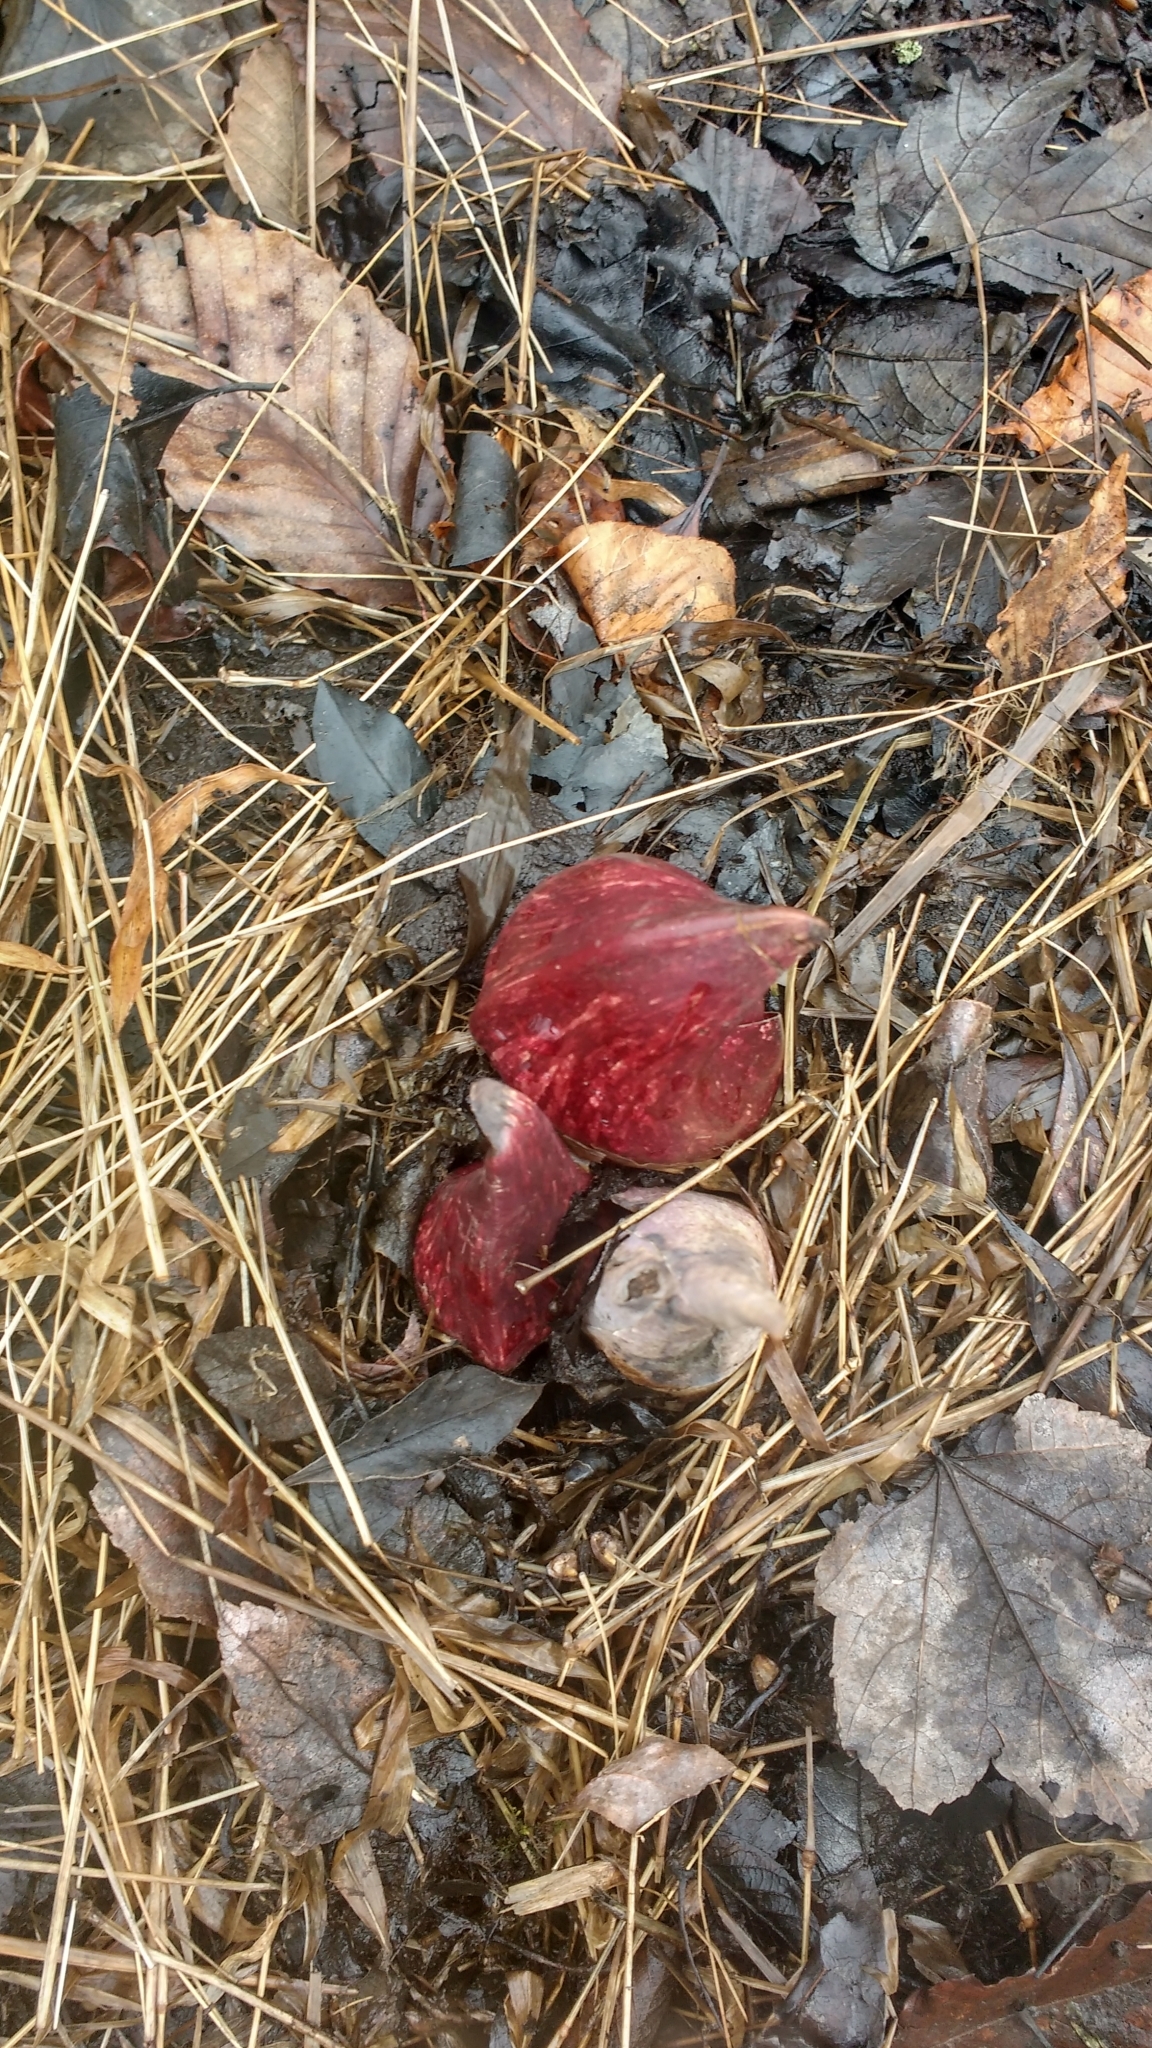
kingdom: Plantae
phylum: Tracheophyta
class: Liliopsida
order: Alismatales
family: Araceae
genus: Symplocarpus
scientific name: Symplocarpus foetidus
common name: Eastern skunk cabbage
